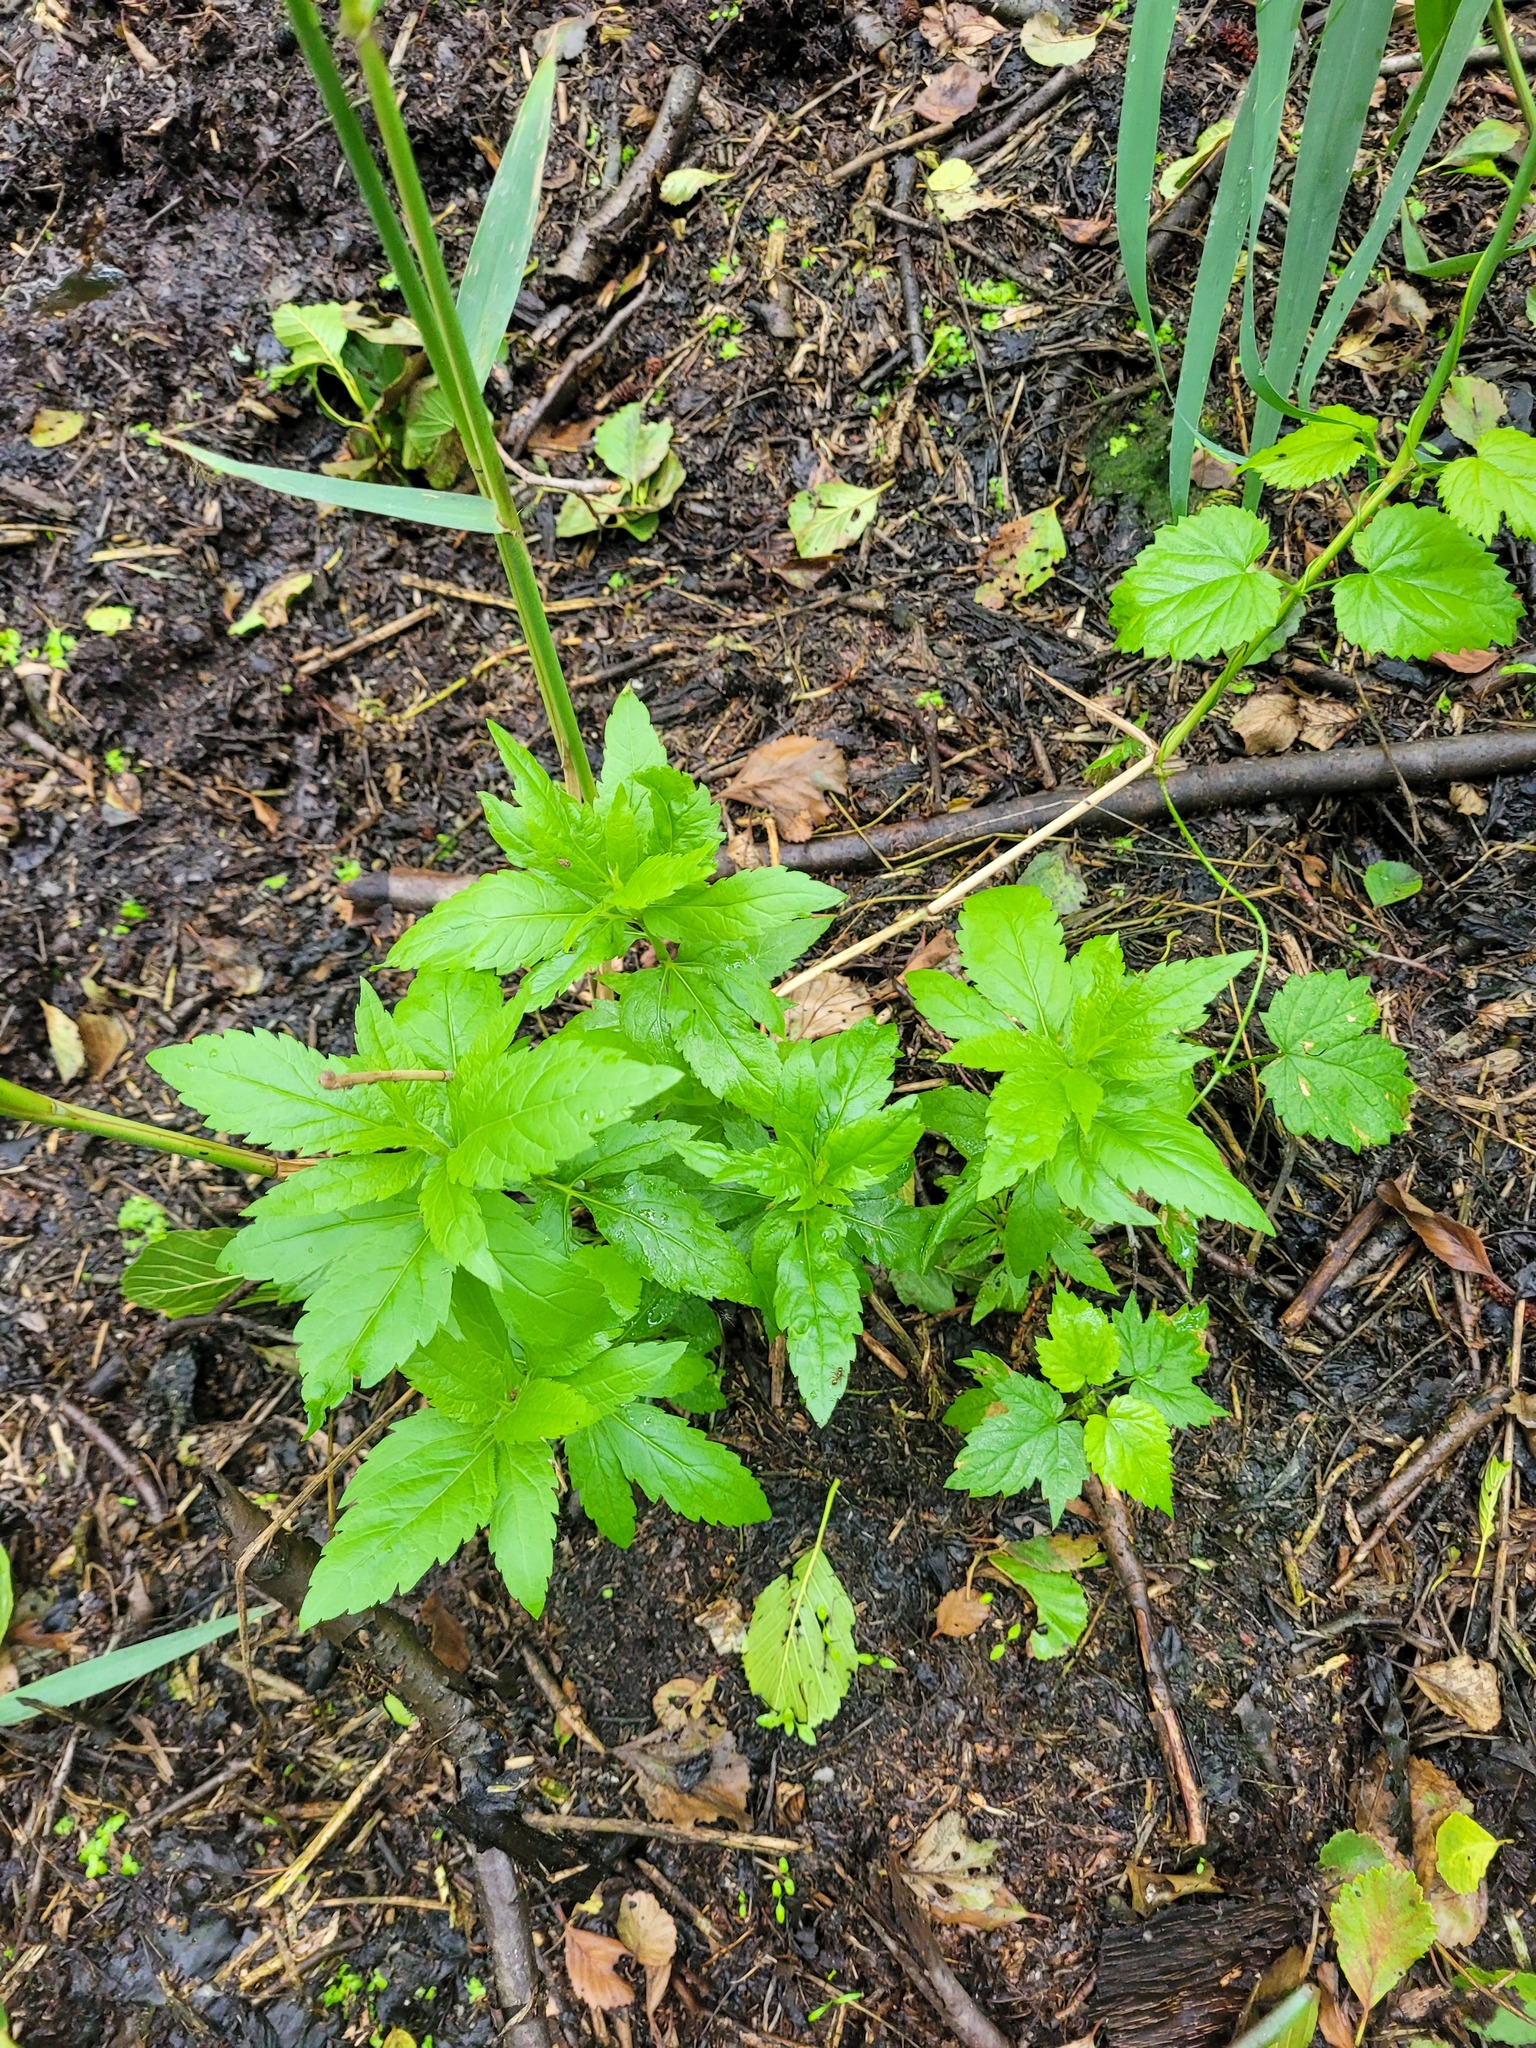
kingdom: Plantae
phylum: Tracheophyta
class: Magnoliopsida
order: Asterales
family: Asteraceae
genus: Eupatorium
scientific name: Eupatorium cannabinum
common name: Hemp-agrimony
